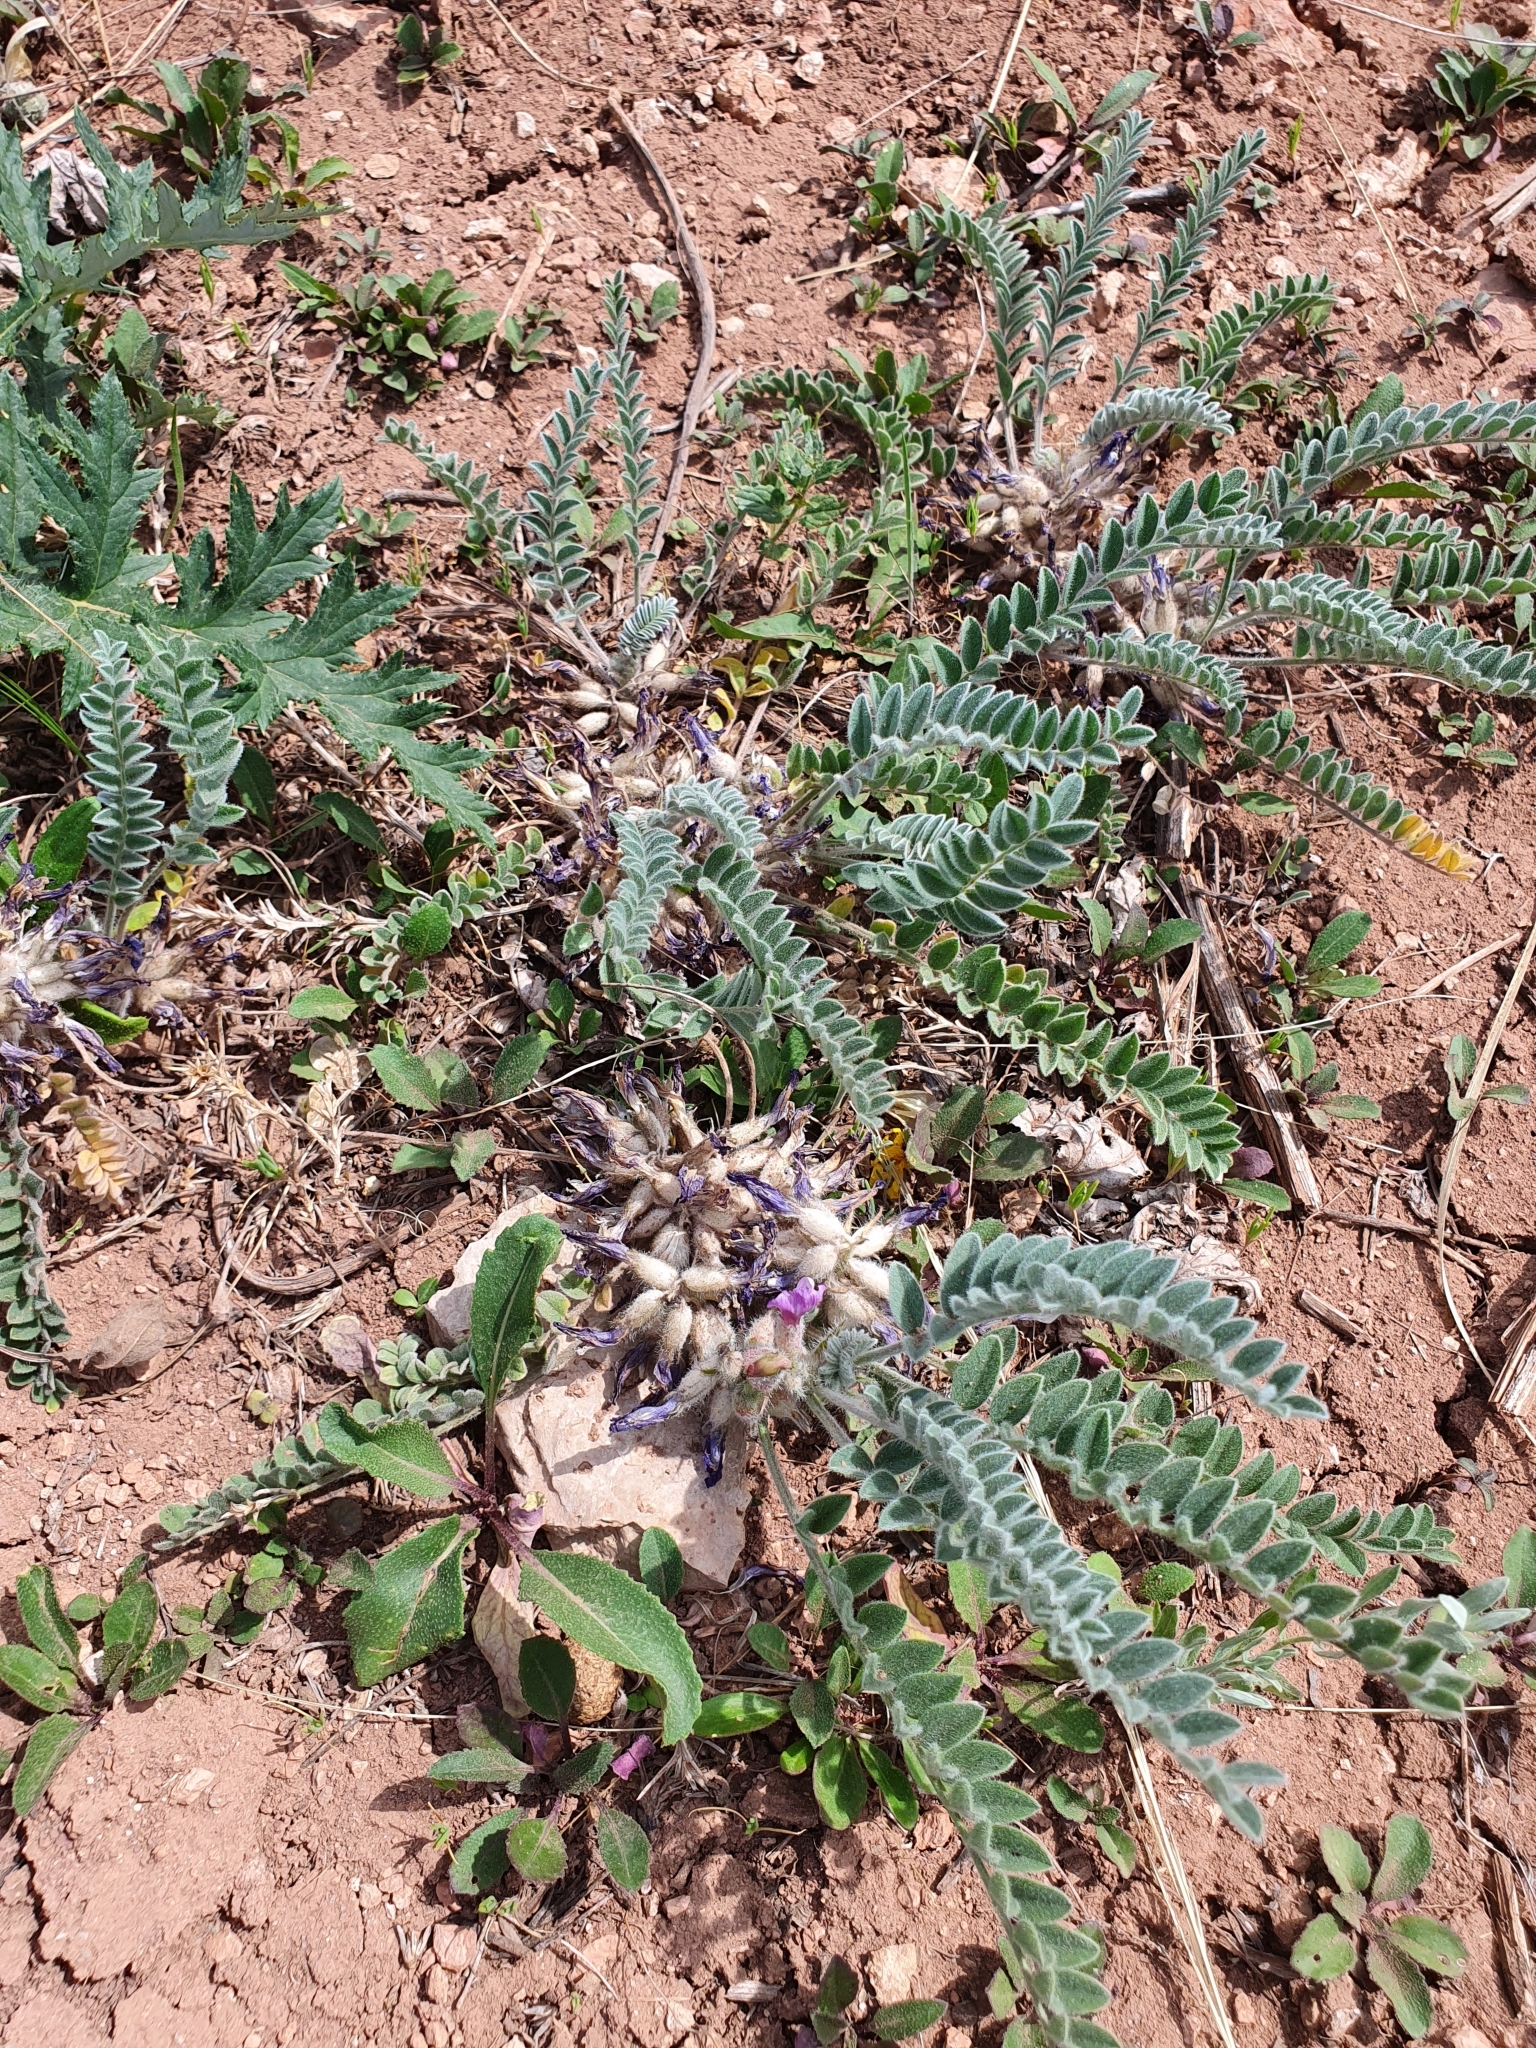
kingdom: Plantae
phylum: Tracheophyta
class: Magnoliopsida
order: Fabales
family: Fabaceae
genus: Astragalus
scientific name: Astragalus testiculatus
